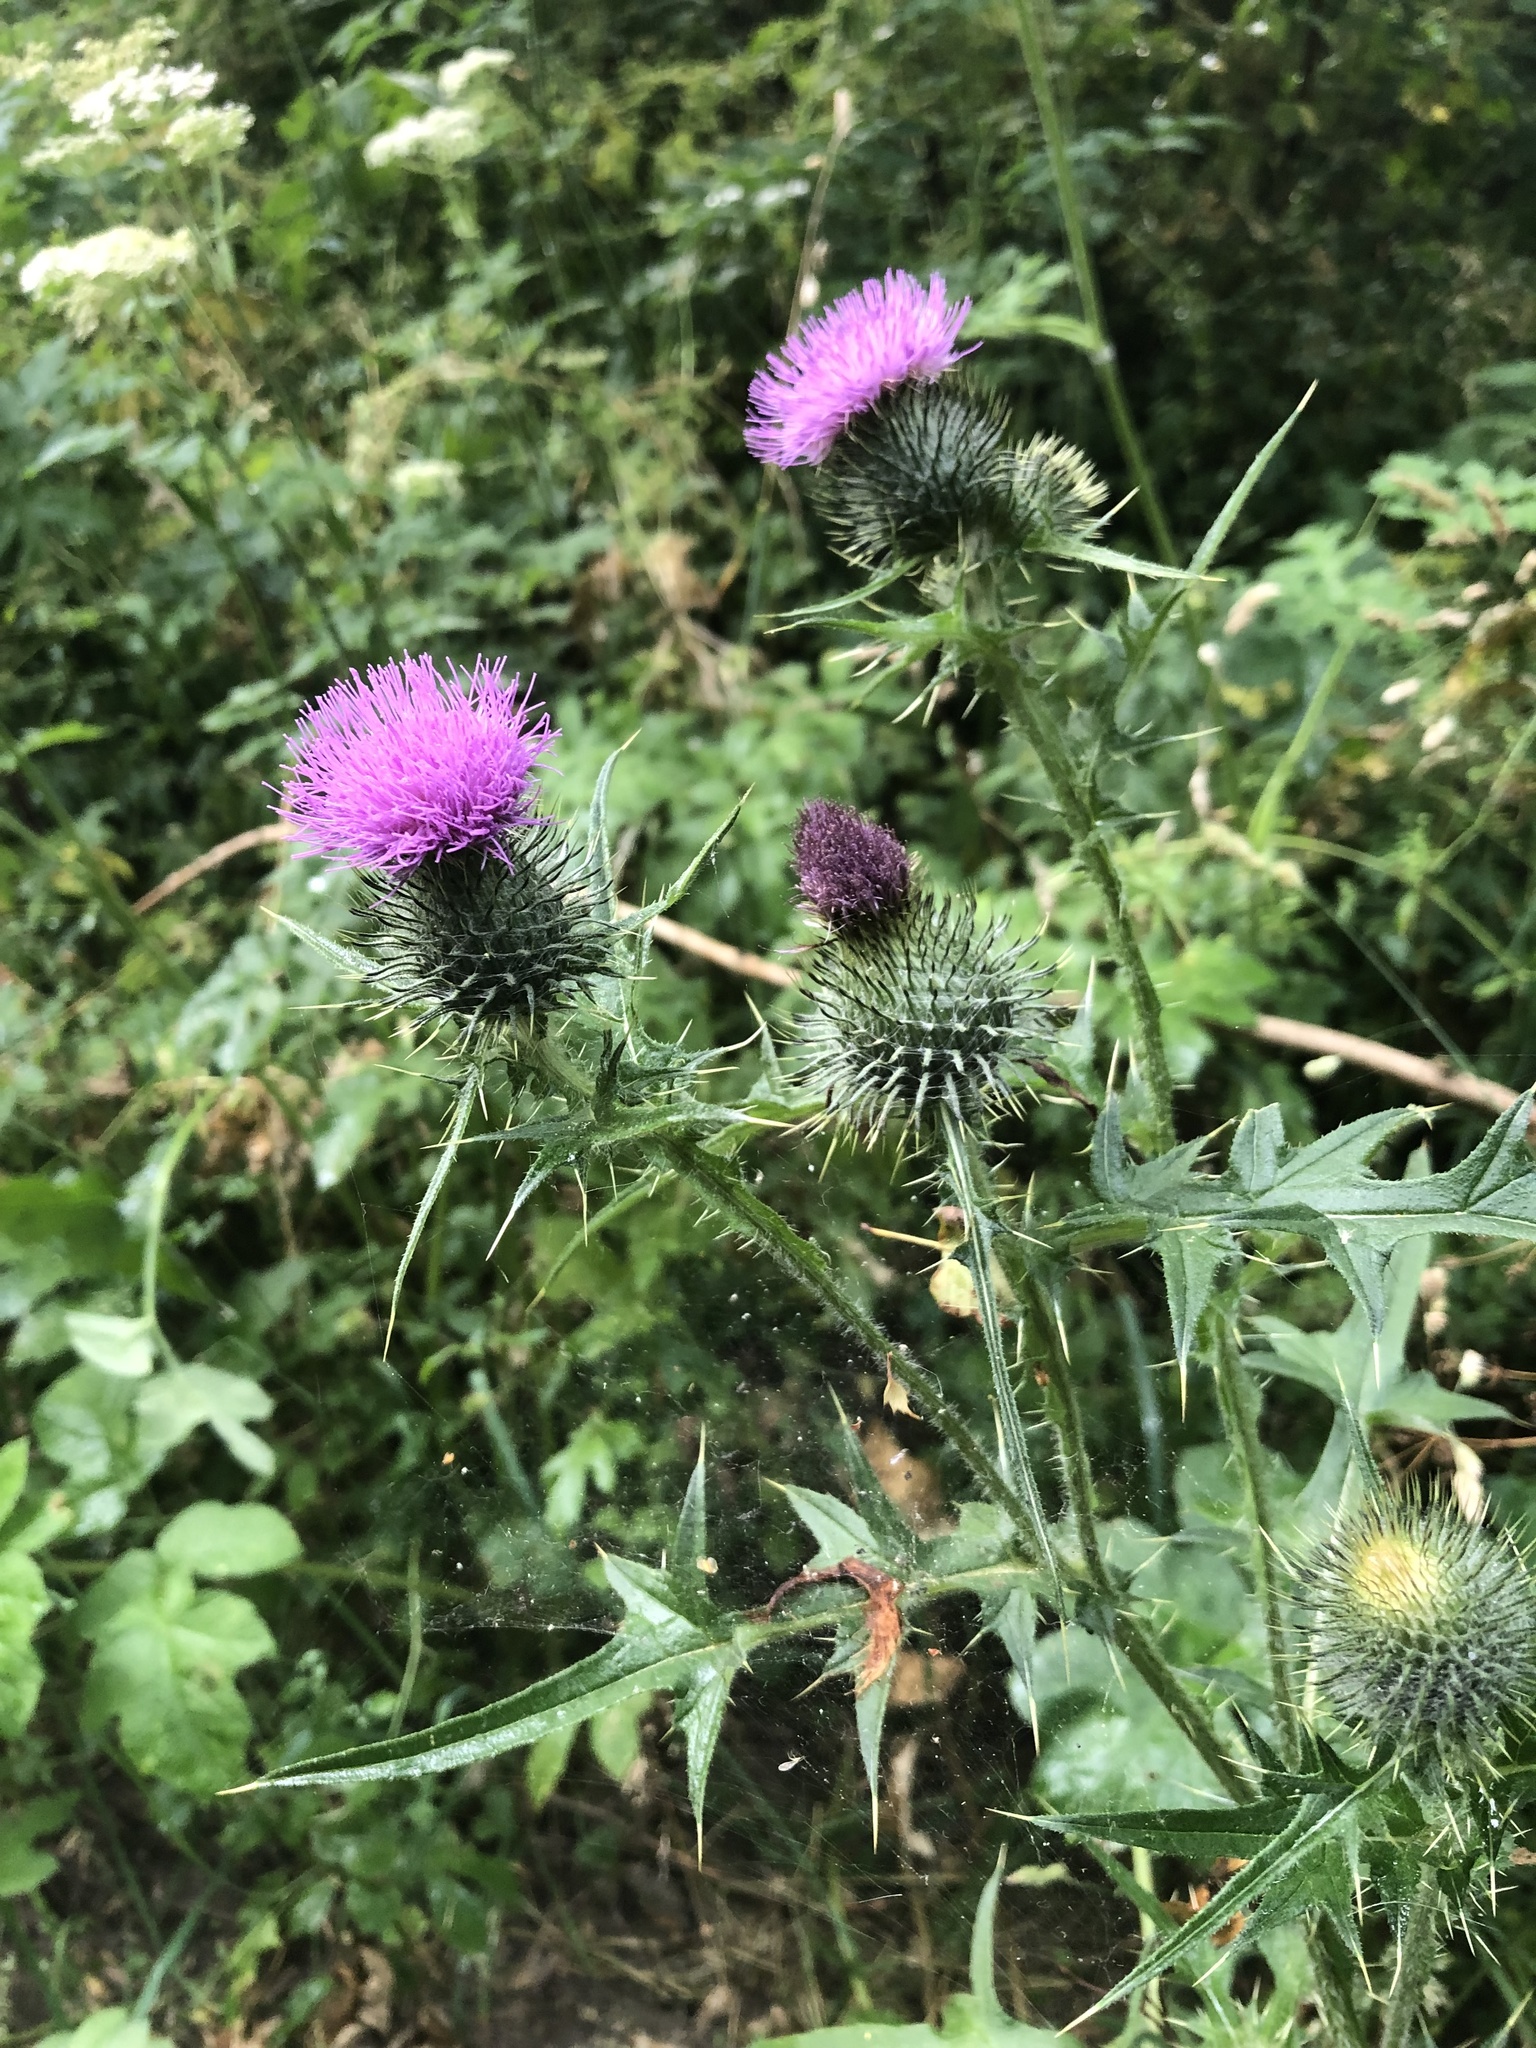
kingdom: Plantae
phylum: Tracheophyta
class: Magnoliopsida
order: Asterales
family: Asteraceae
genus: Cirsium
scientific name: Cirsium vulgare
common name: Bull thistle
